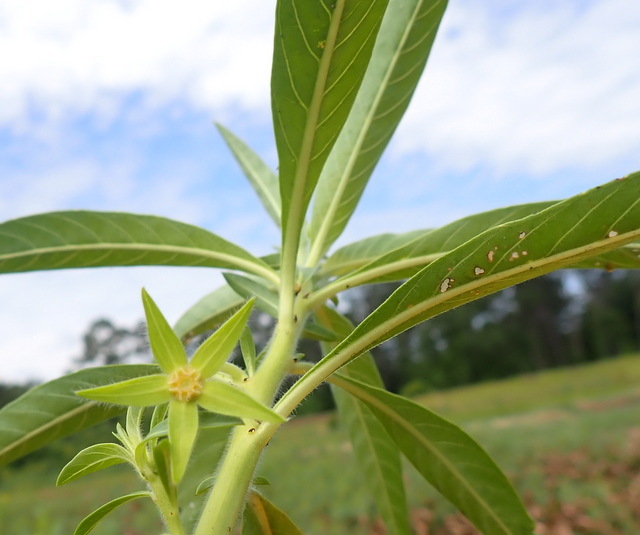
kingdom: Plantae
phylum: Tracheophyta
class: Magnoliopsida
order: Myrtales
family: Onagraceae
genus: Ludwigia
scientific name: Ludwigia hexapetala
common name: Water-primrose
